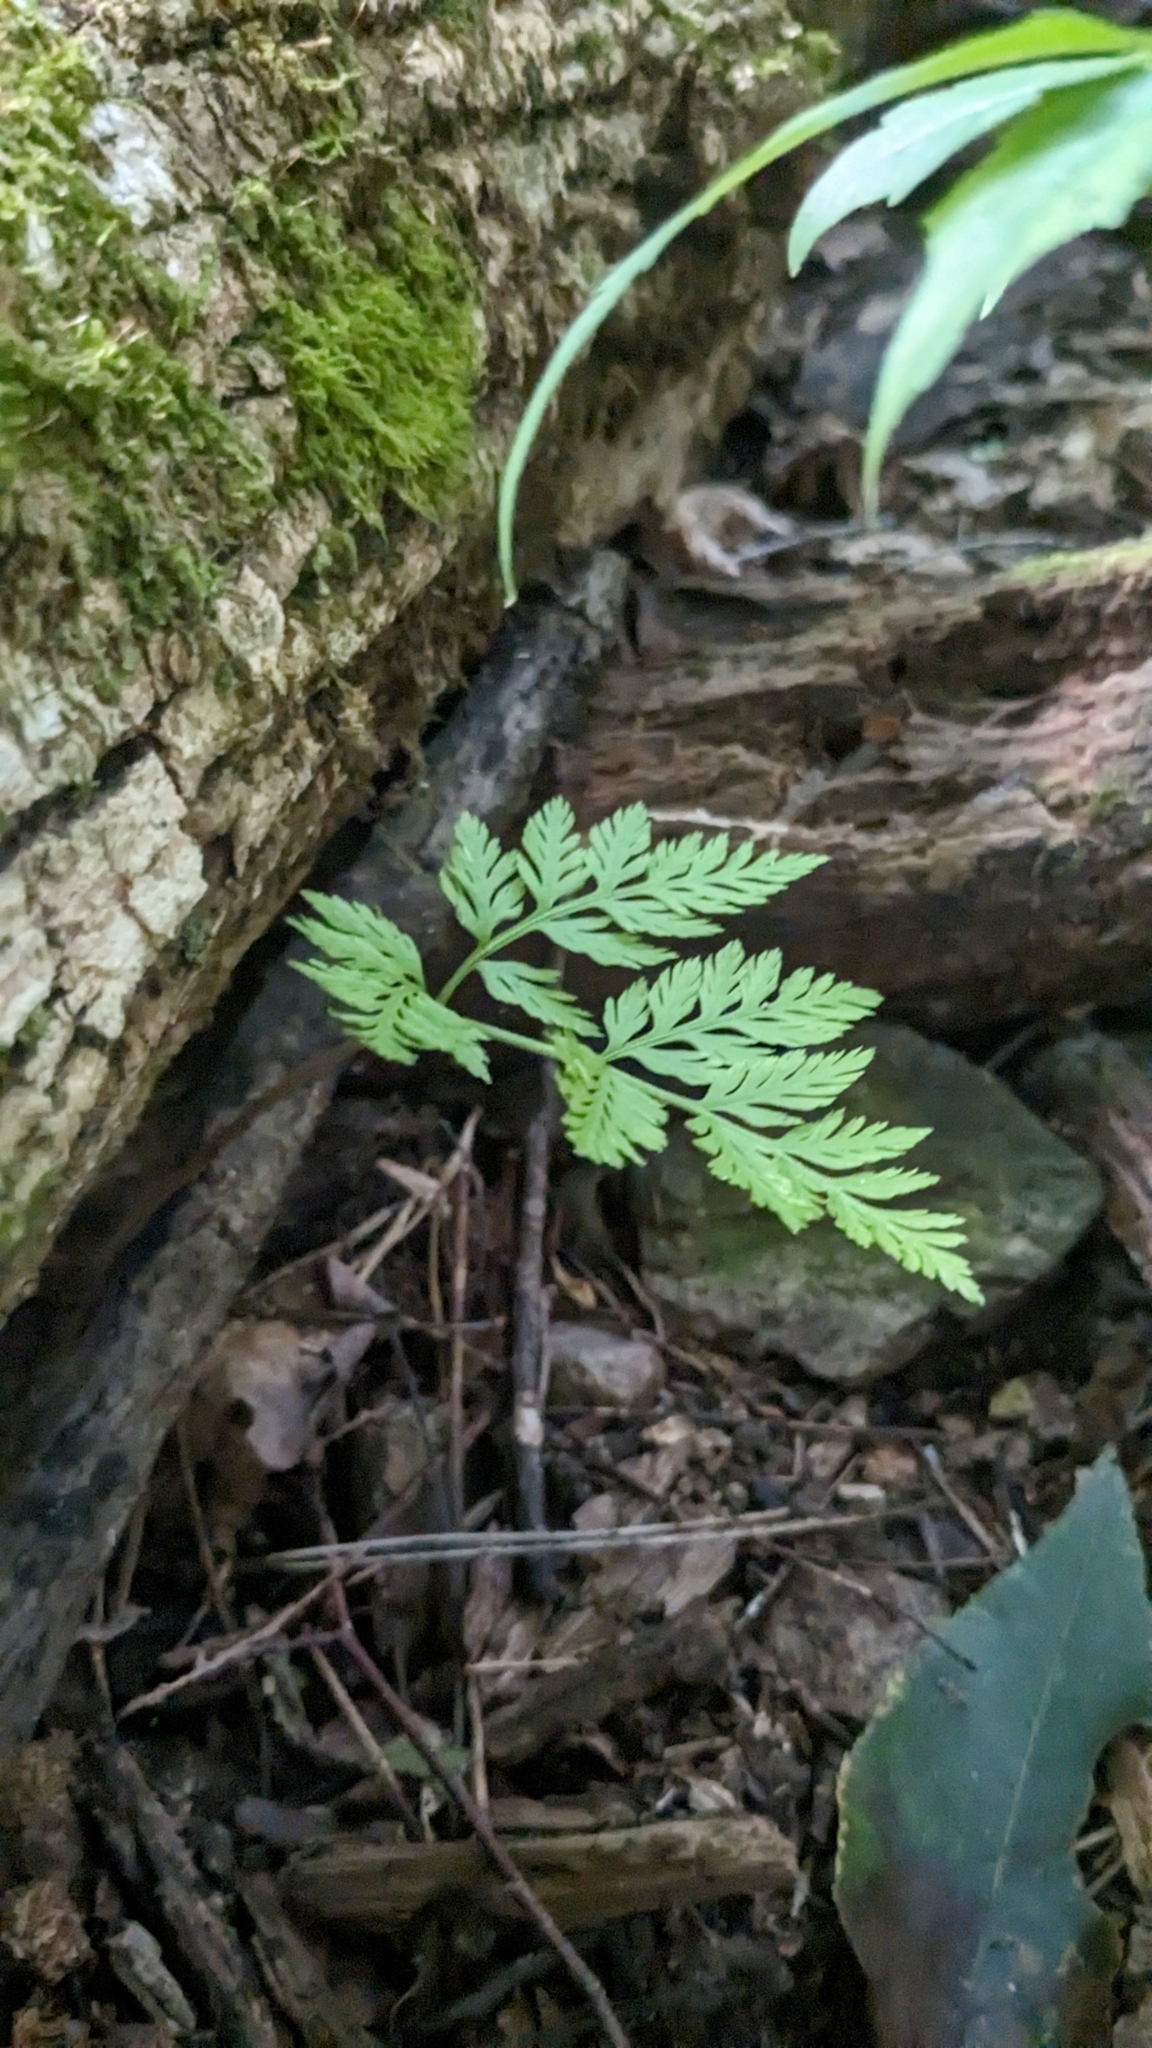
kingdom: Plantae
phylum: Tracheophyta
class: Polypodiopsida
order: Ophioglossales
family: Ophioglossaceae
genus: Botrypus
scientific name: Botrypus virginianus
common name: Common grapefern
